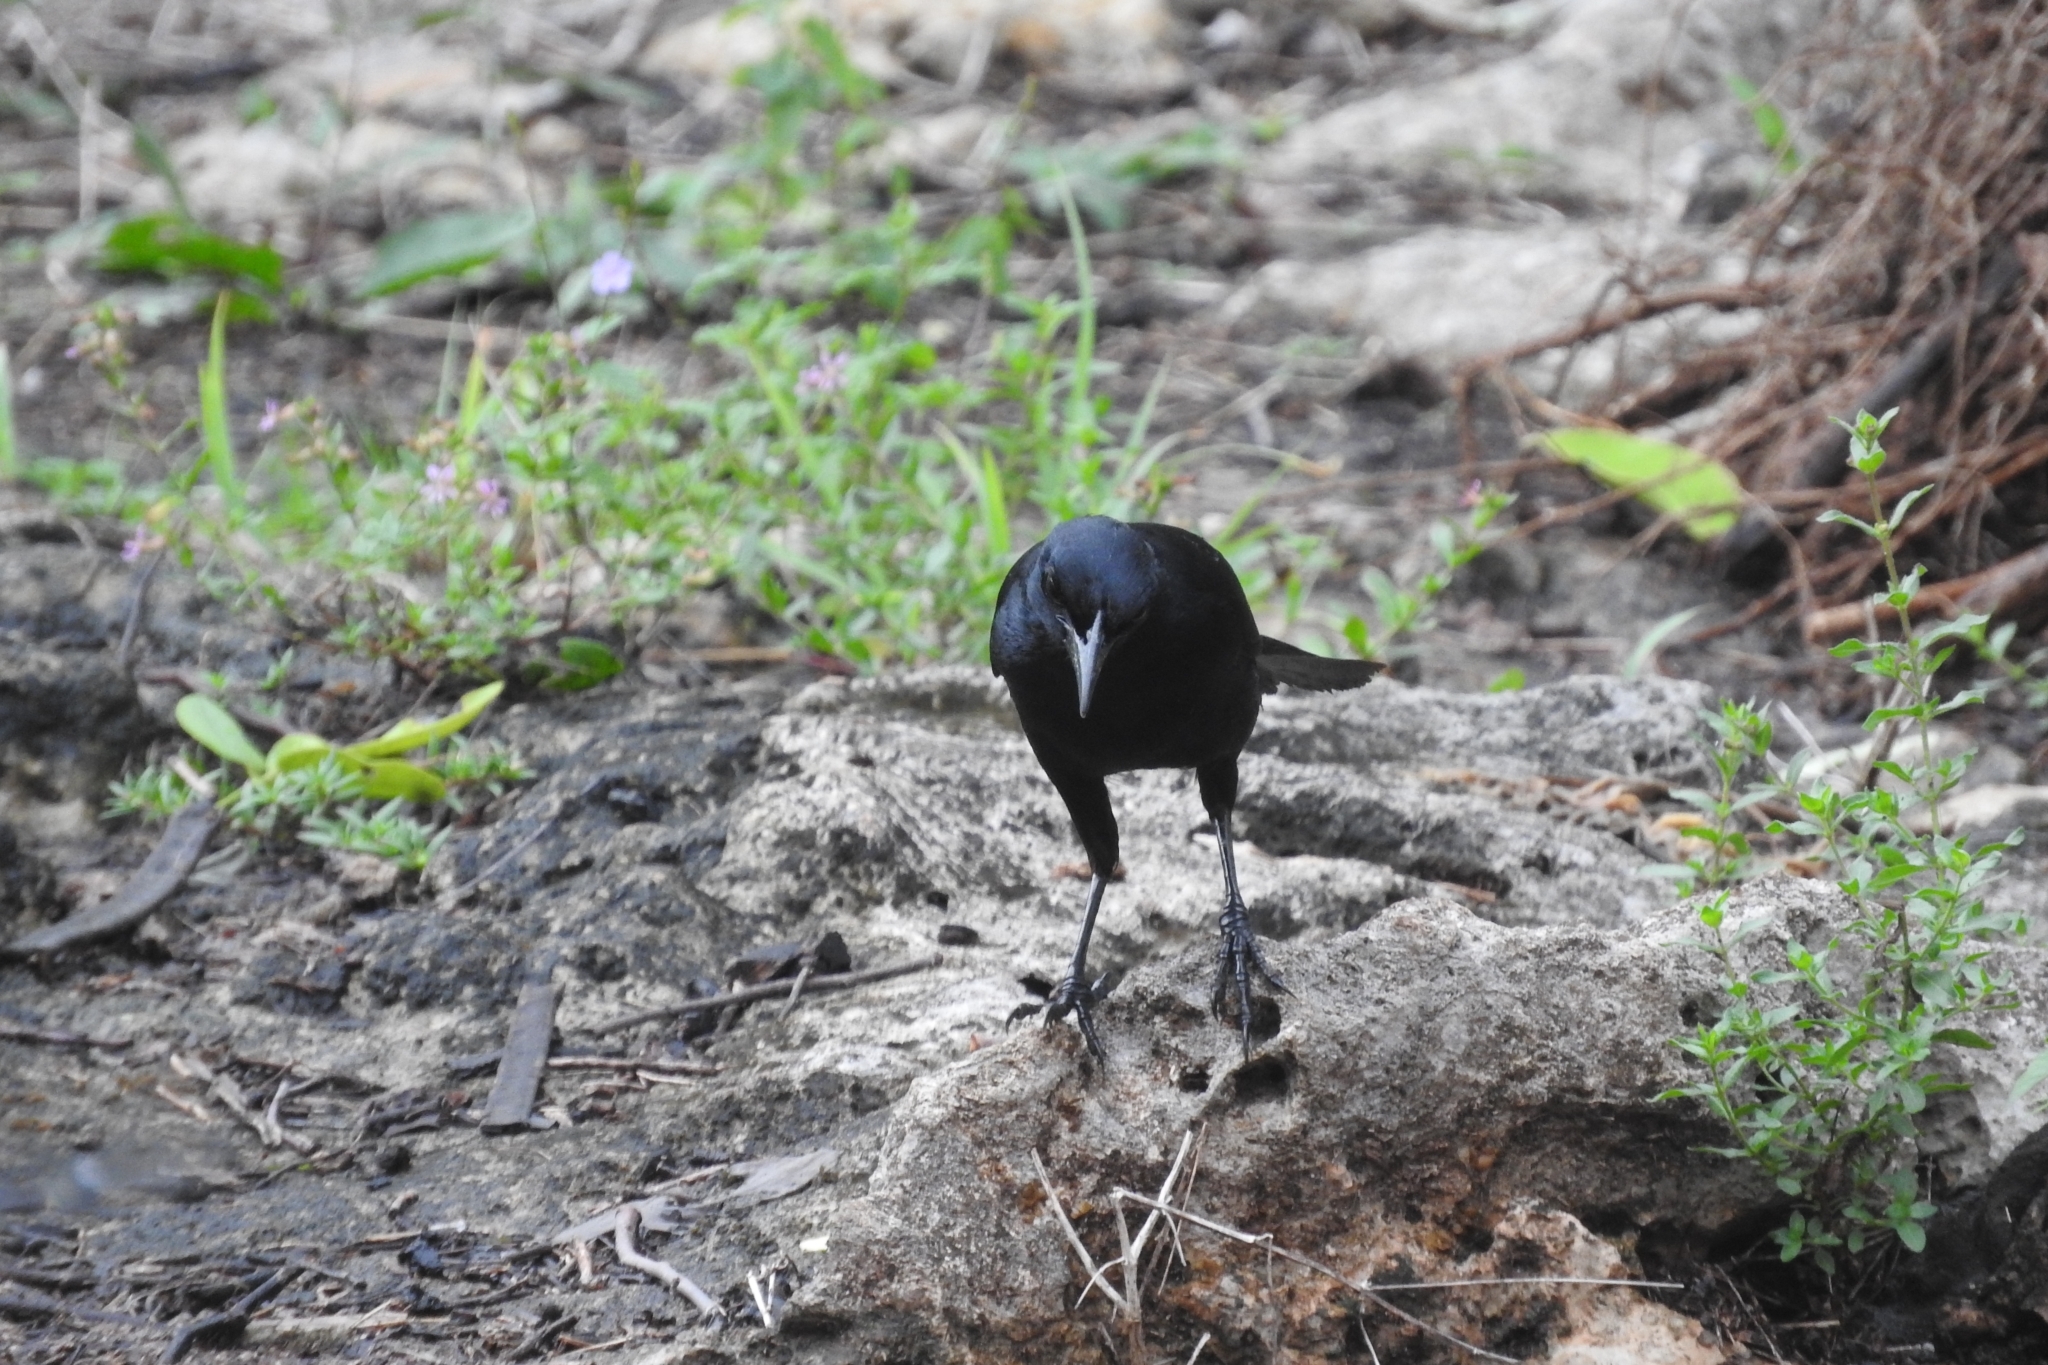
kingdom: Animalia
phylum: Chordata
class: Aves
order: Passeriformes
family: Icteridae
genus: Dives
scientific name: Dives dives
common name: Melodious blackbird
